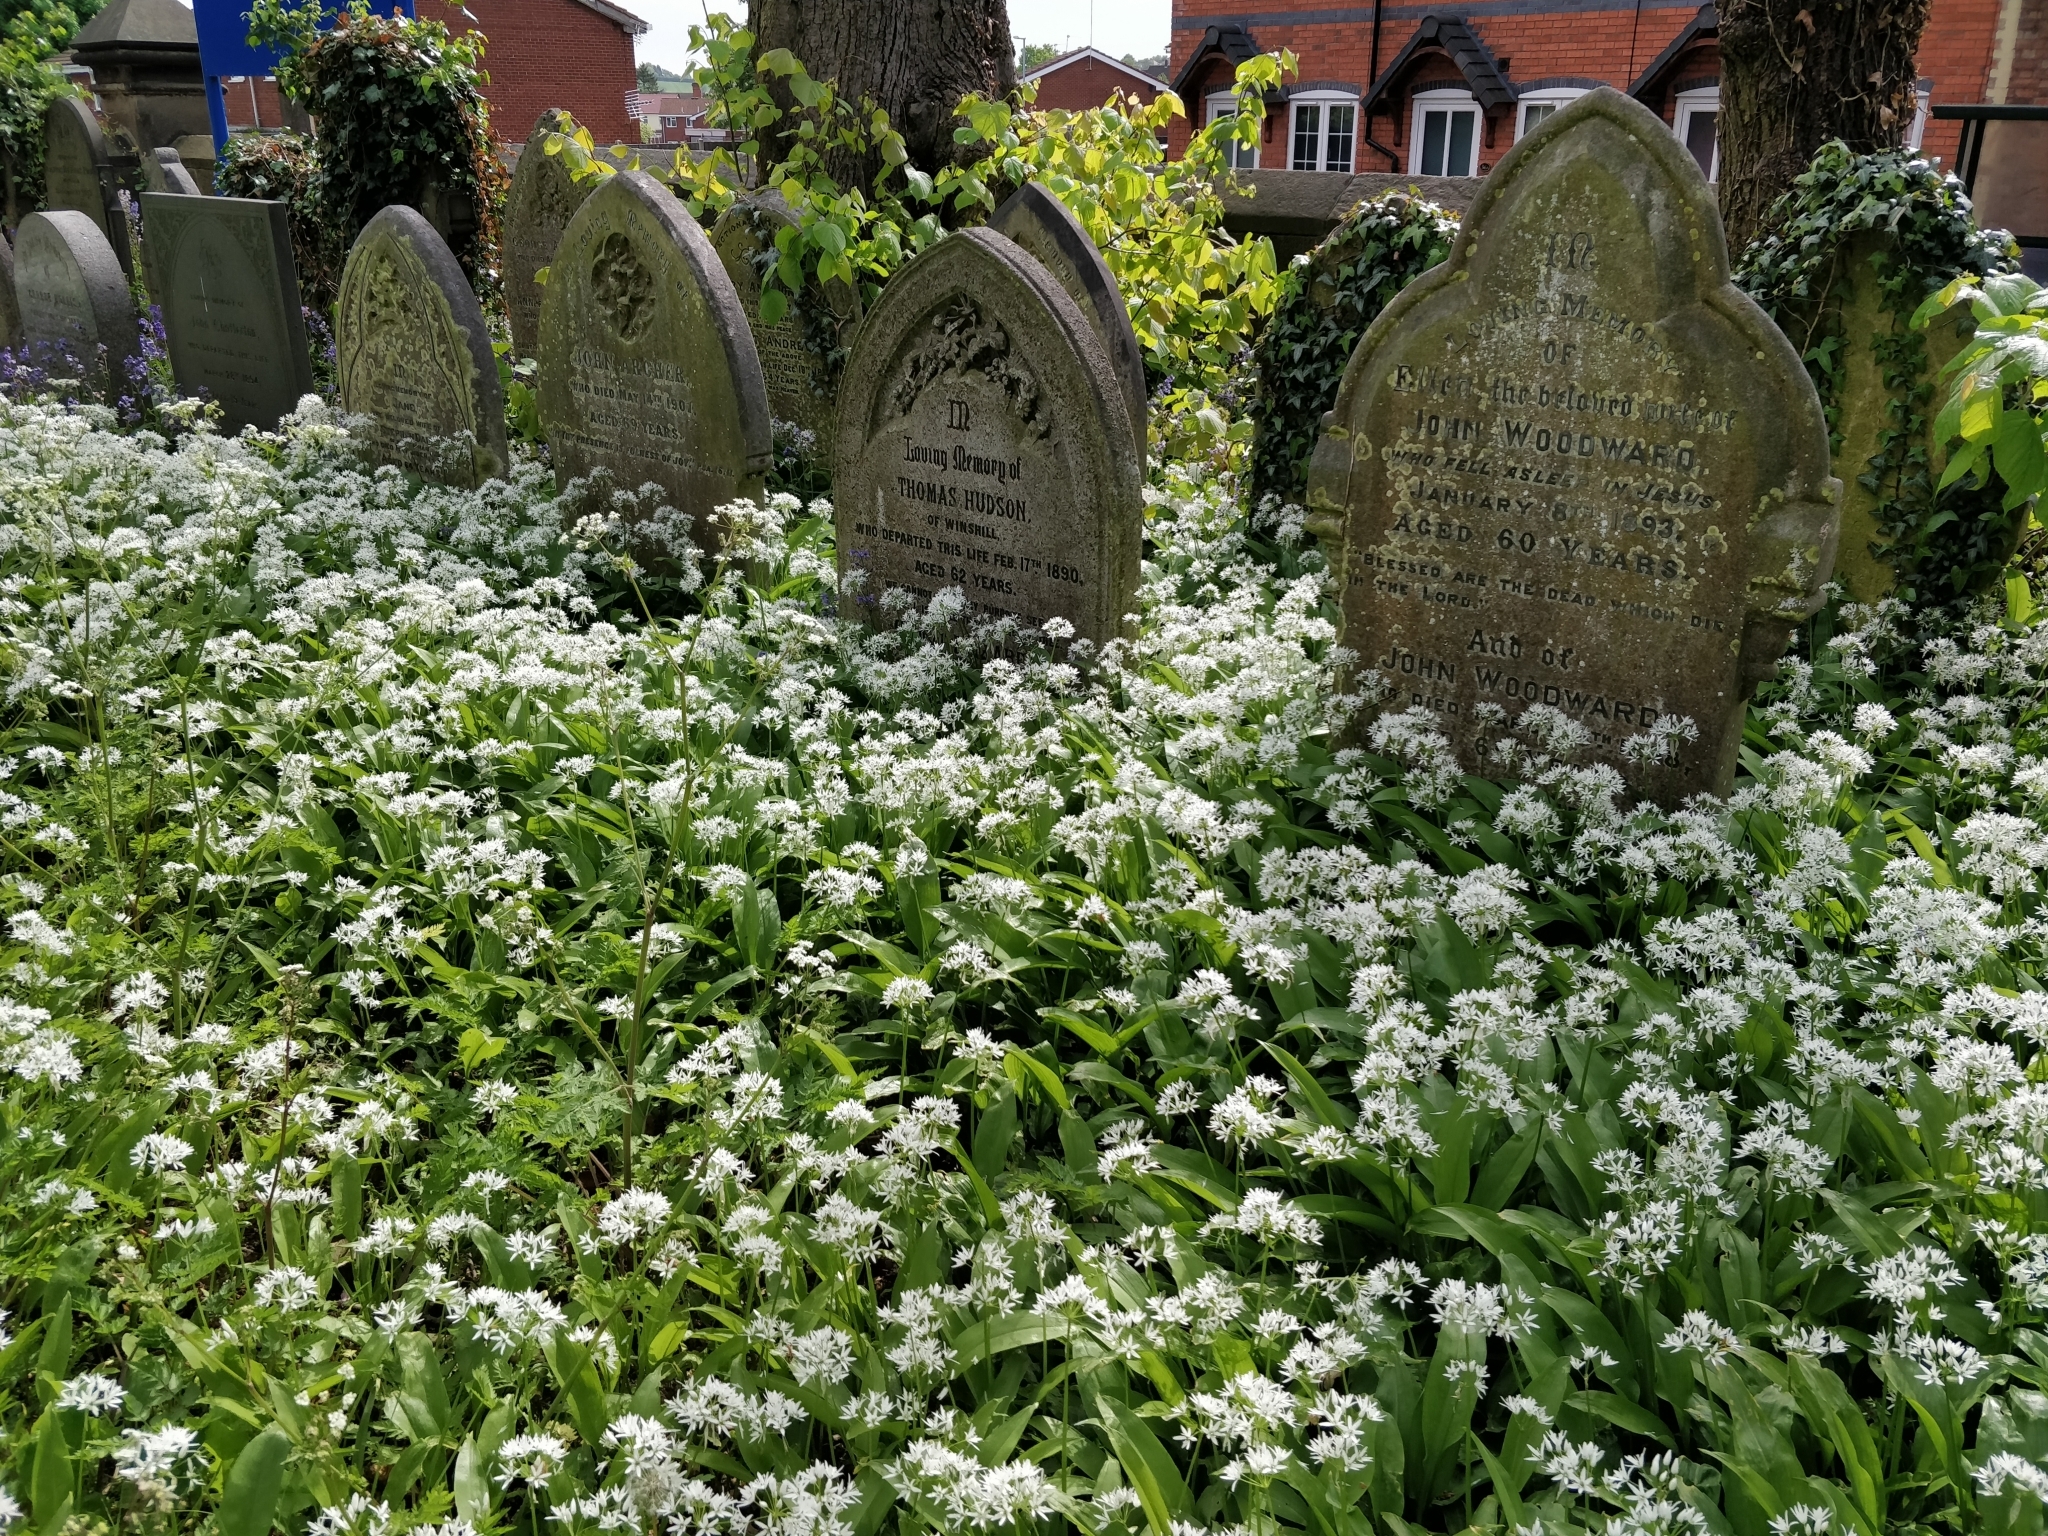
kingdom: Plantae
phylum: Tracheophyta
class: Liliopsida
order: Asparagales
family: Amaryllidaceae
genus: Allium
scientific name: Allium ursinum
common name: Ramsons
